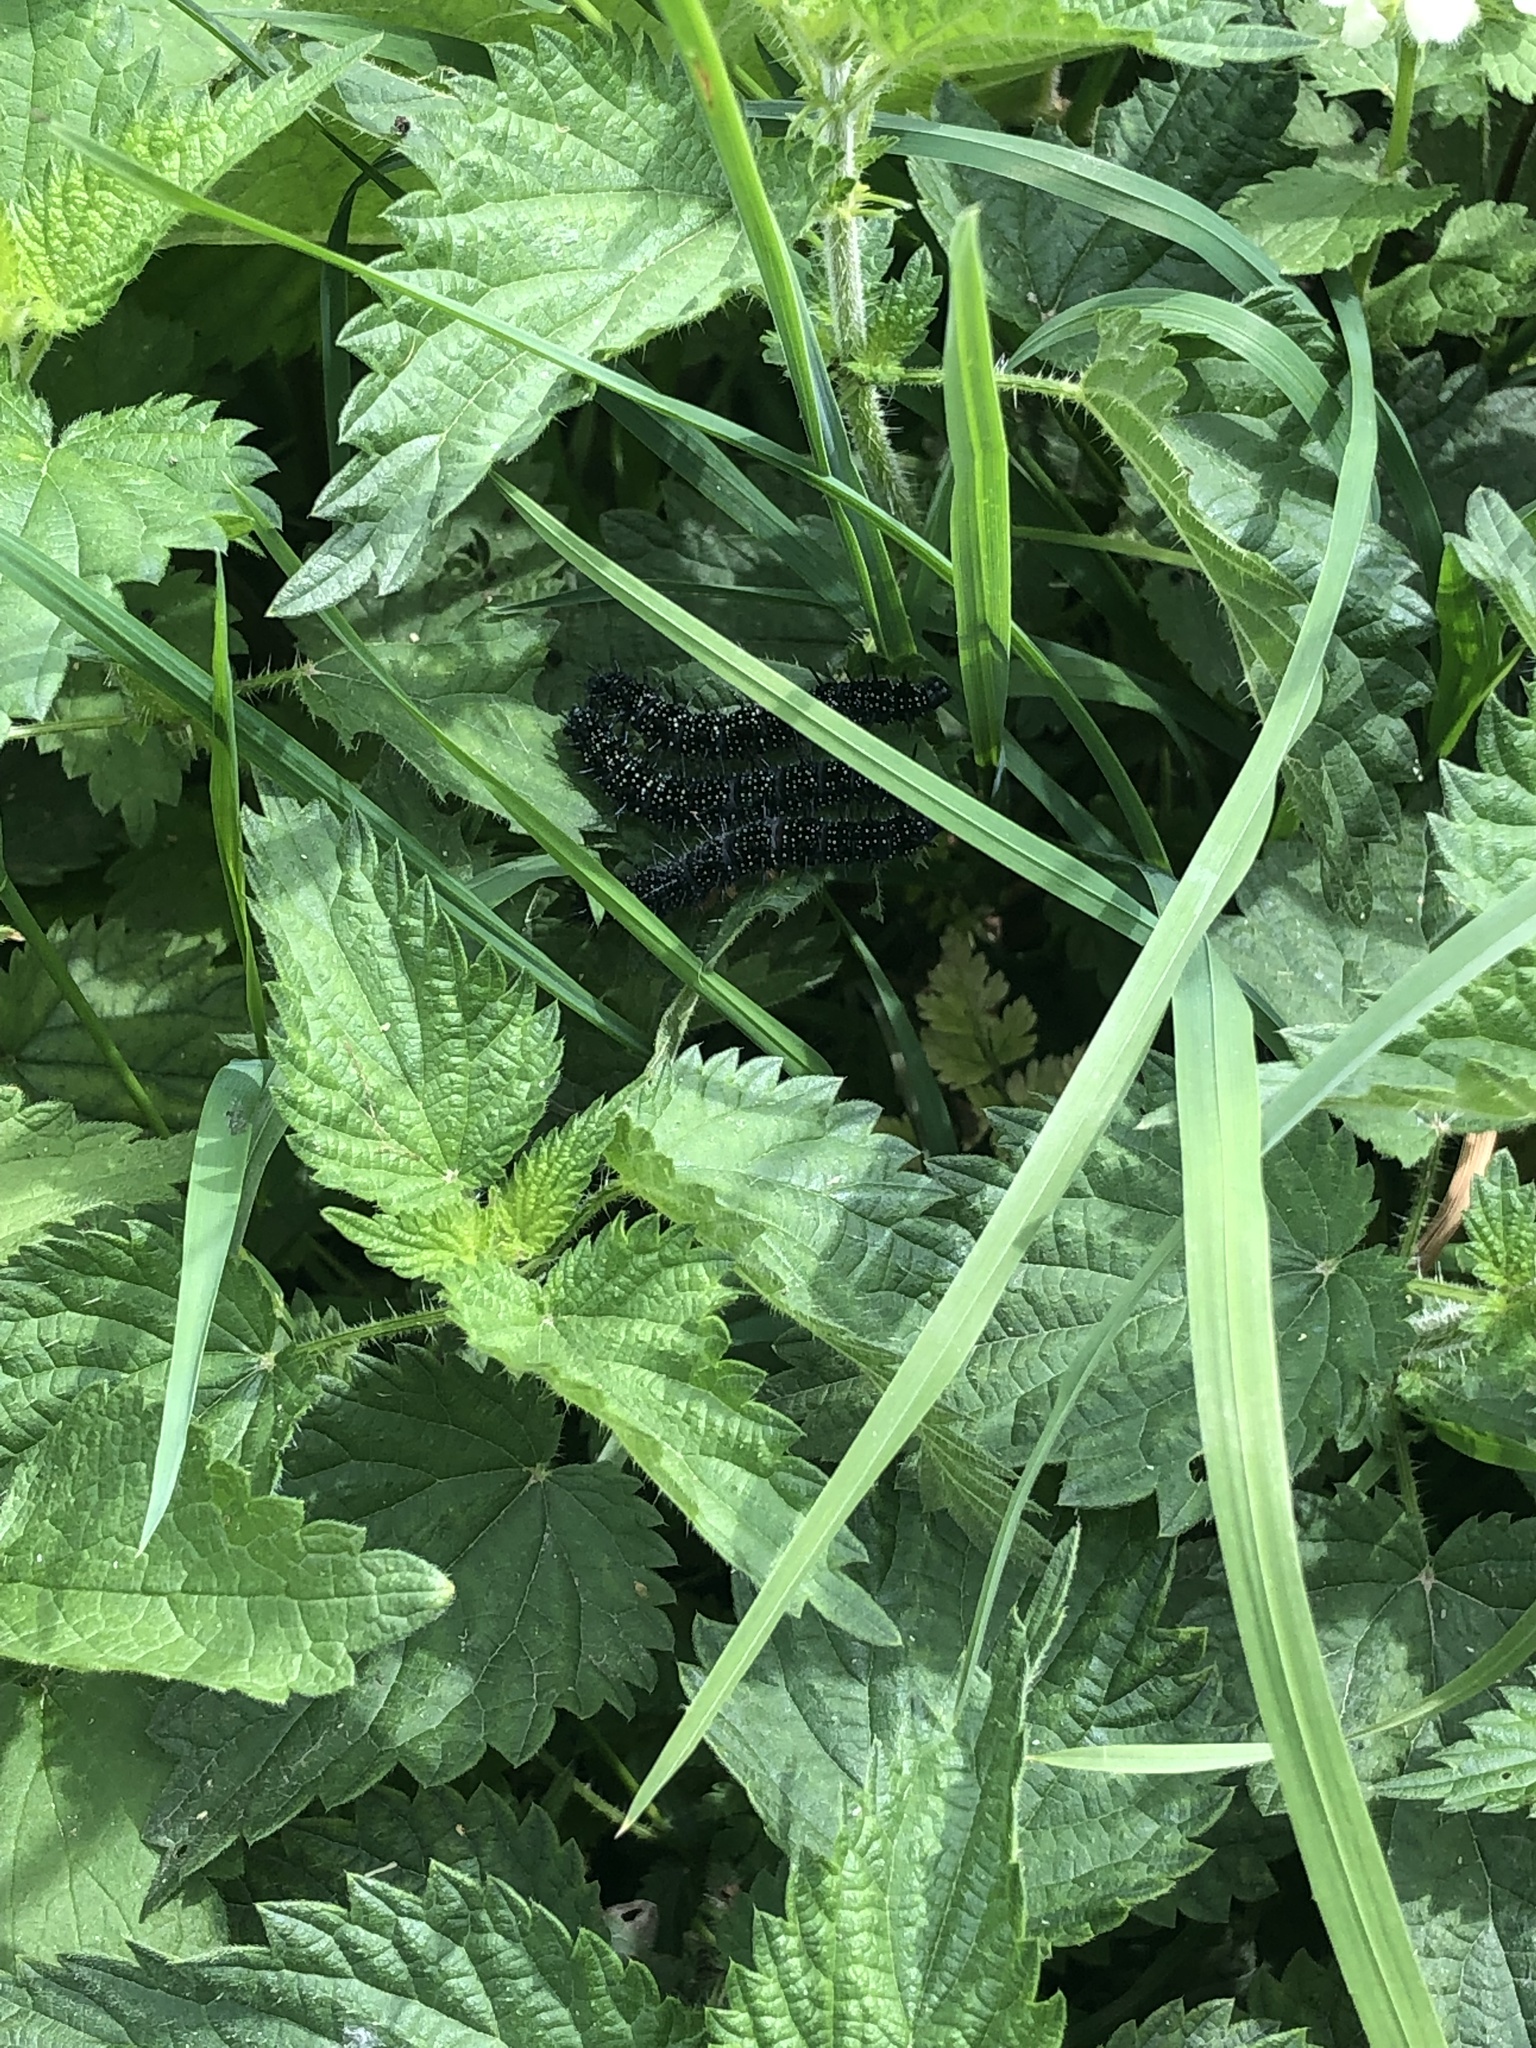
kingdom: Animalia
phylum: Arthropoda
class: Insecta
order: Lepidoptera
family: Nymphalidae
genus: Aglais
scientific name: Aglais io
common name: Peacock
